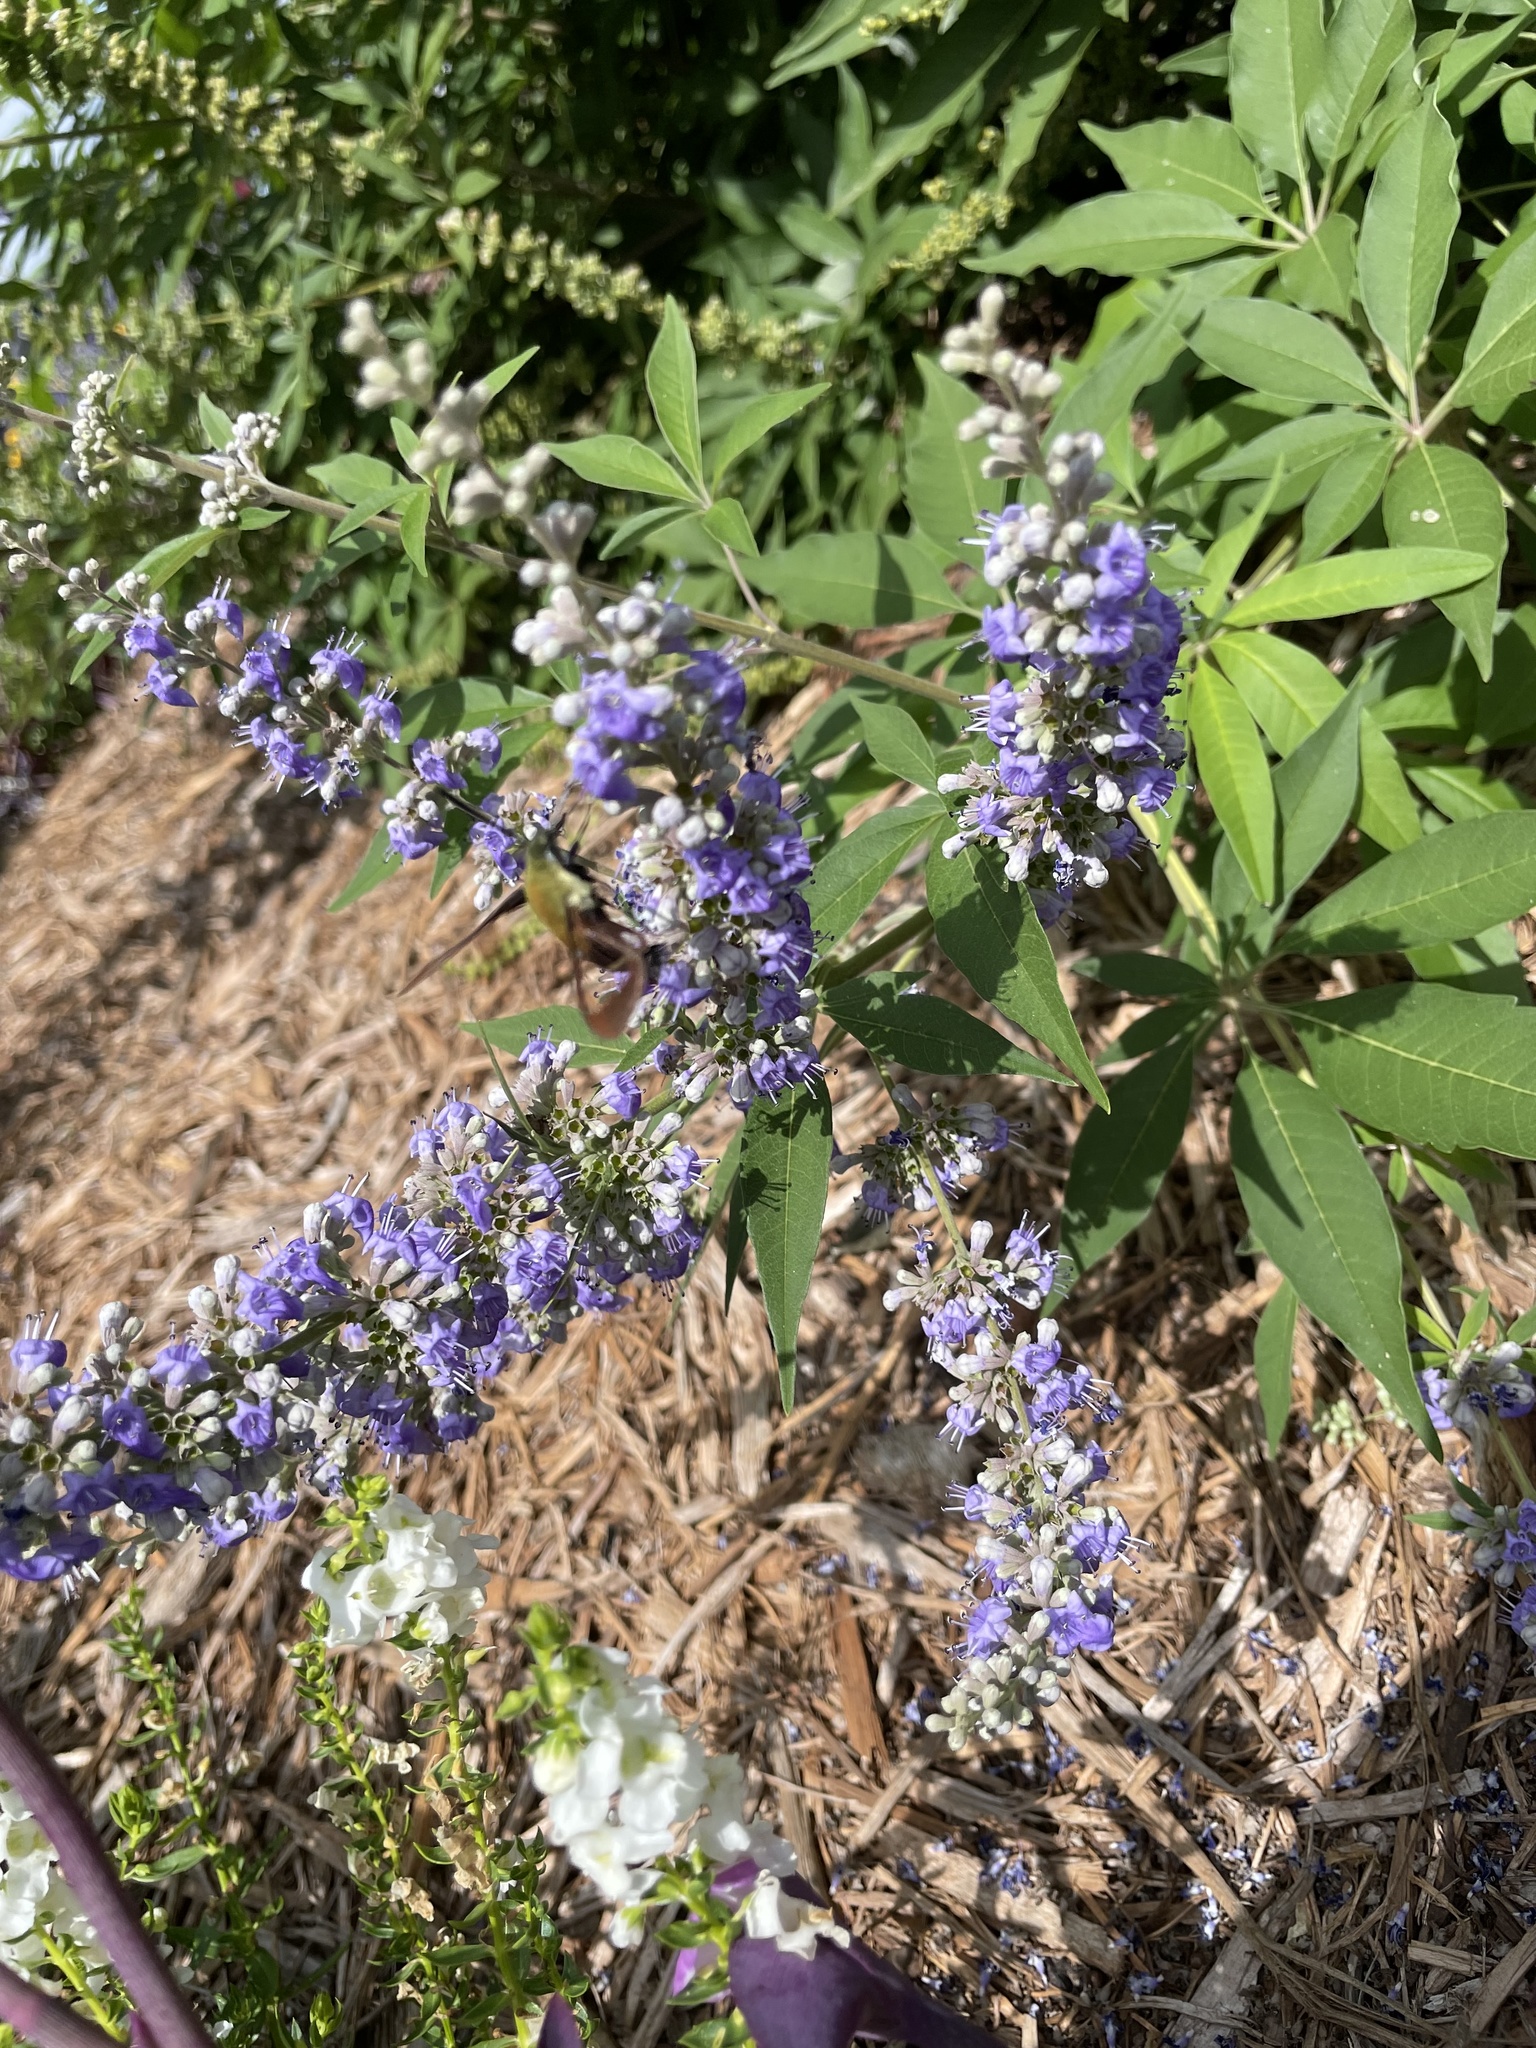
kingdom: Animalia
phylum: Arthropoda
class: Insecta
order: Lepidoptera
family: Sphingidae
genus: Hemaris
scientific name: Hemaris diffinis
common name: Bumblebee moth
